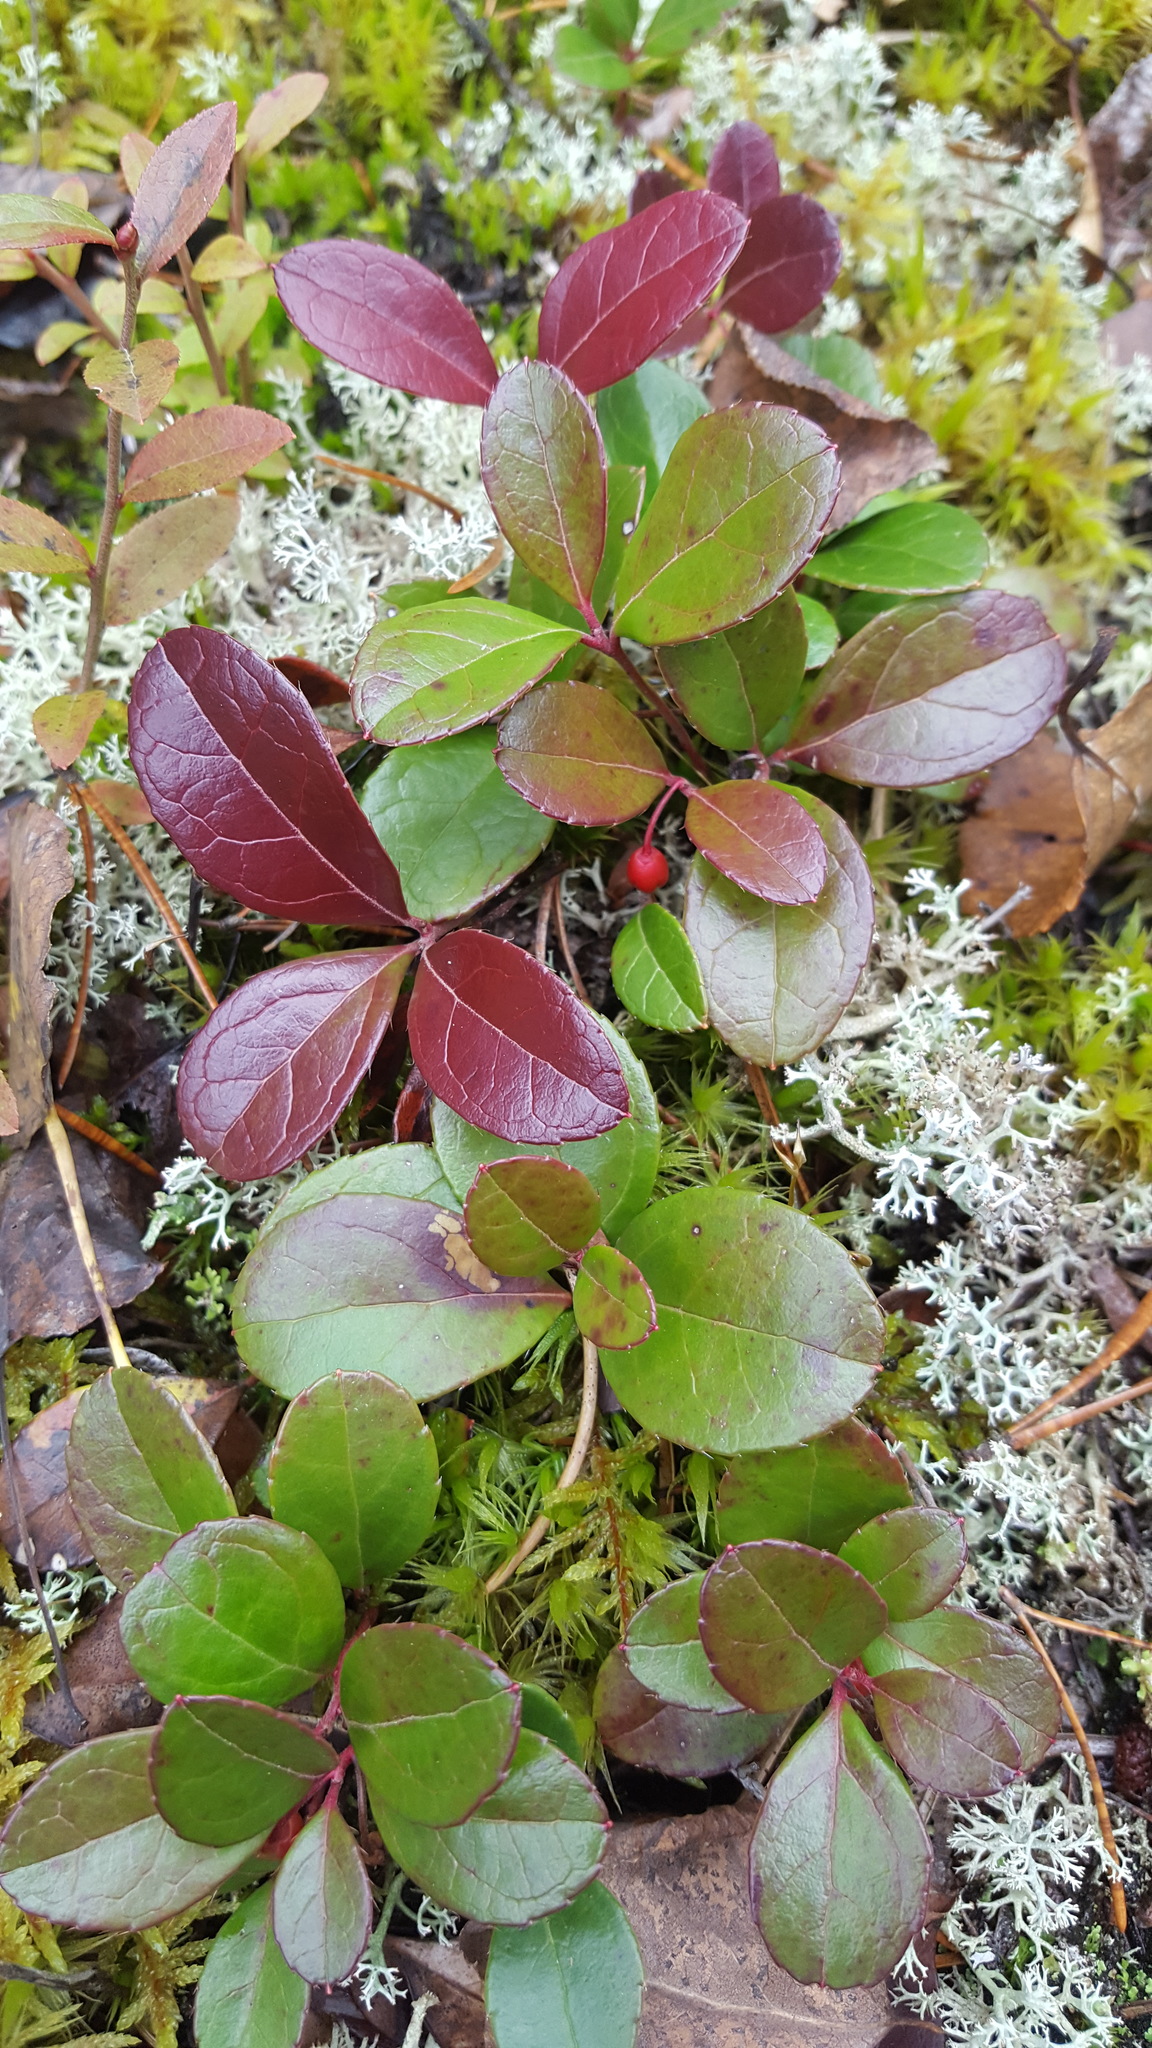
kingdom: Plantae
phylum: Tracheophyta
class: Magnoliopsida
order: Ericales
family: Ericaceae
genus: Gaultheria
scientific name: Gaultheria procumbens
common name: Checkerberry
